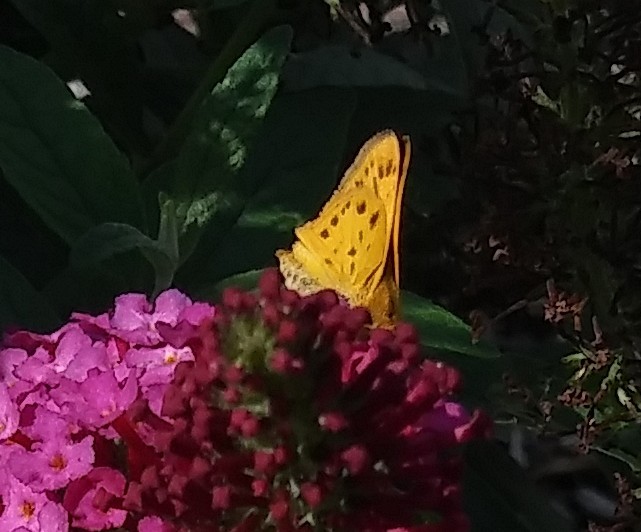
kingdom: Animalia
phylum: Arthropoda
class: Insecta
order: Lepidoptera
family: Hesperiidae
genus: Hylephila
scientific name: Hylephila phyleus
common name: Fiery skipper
